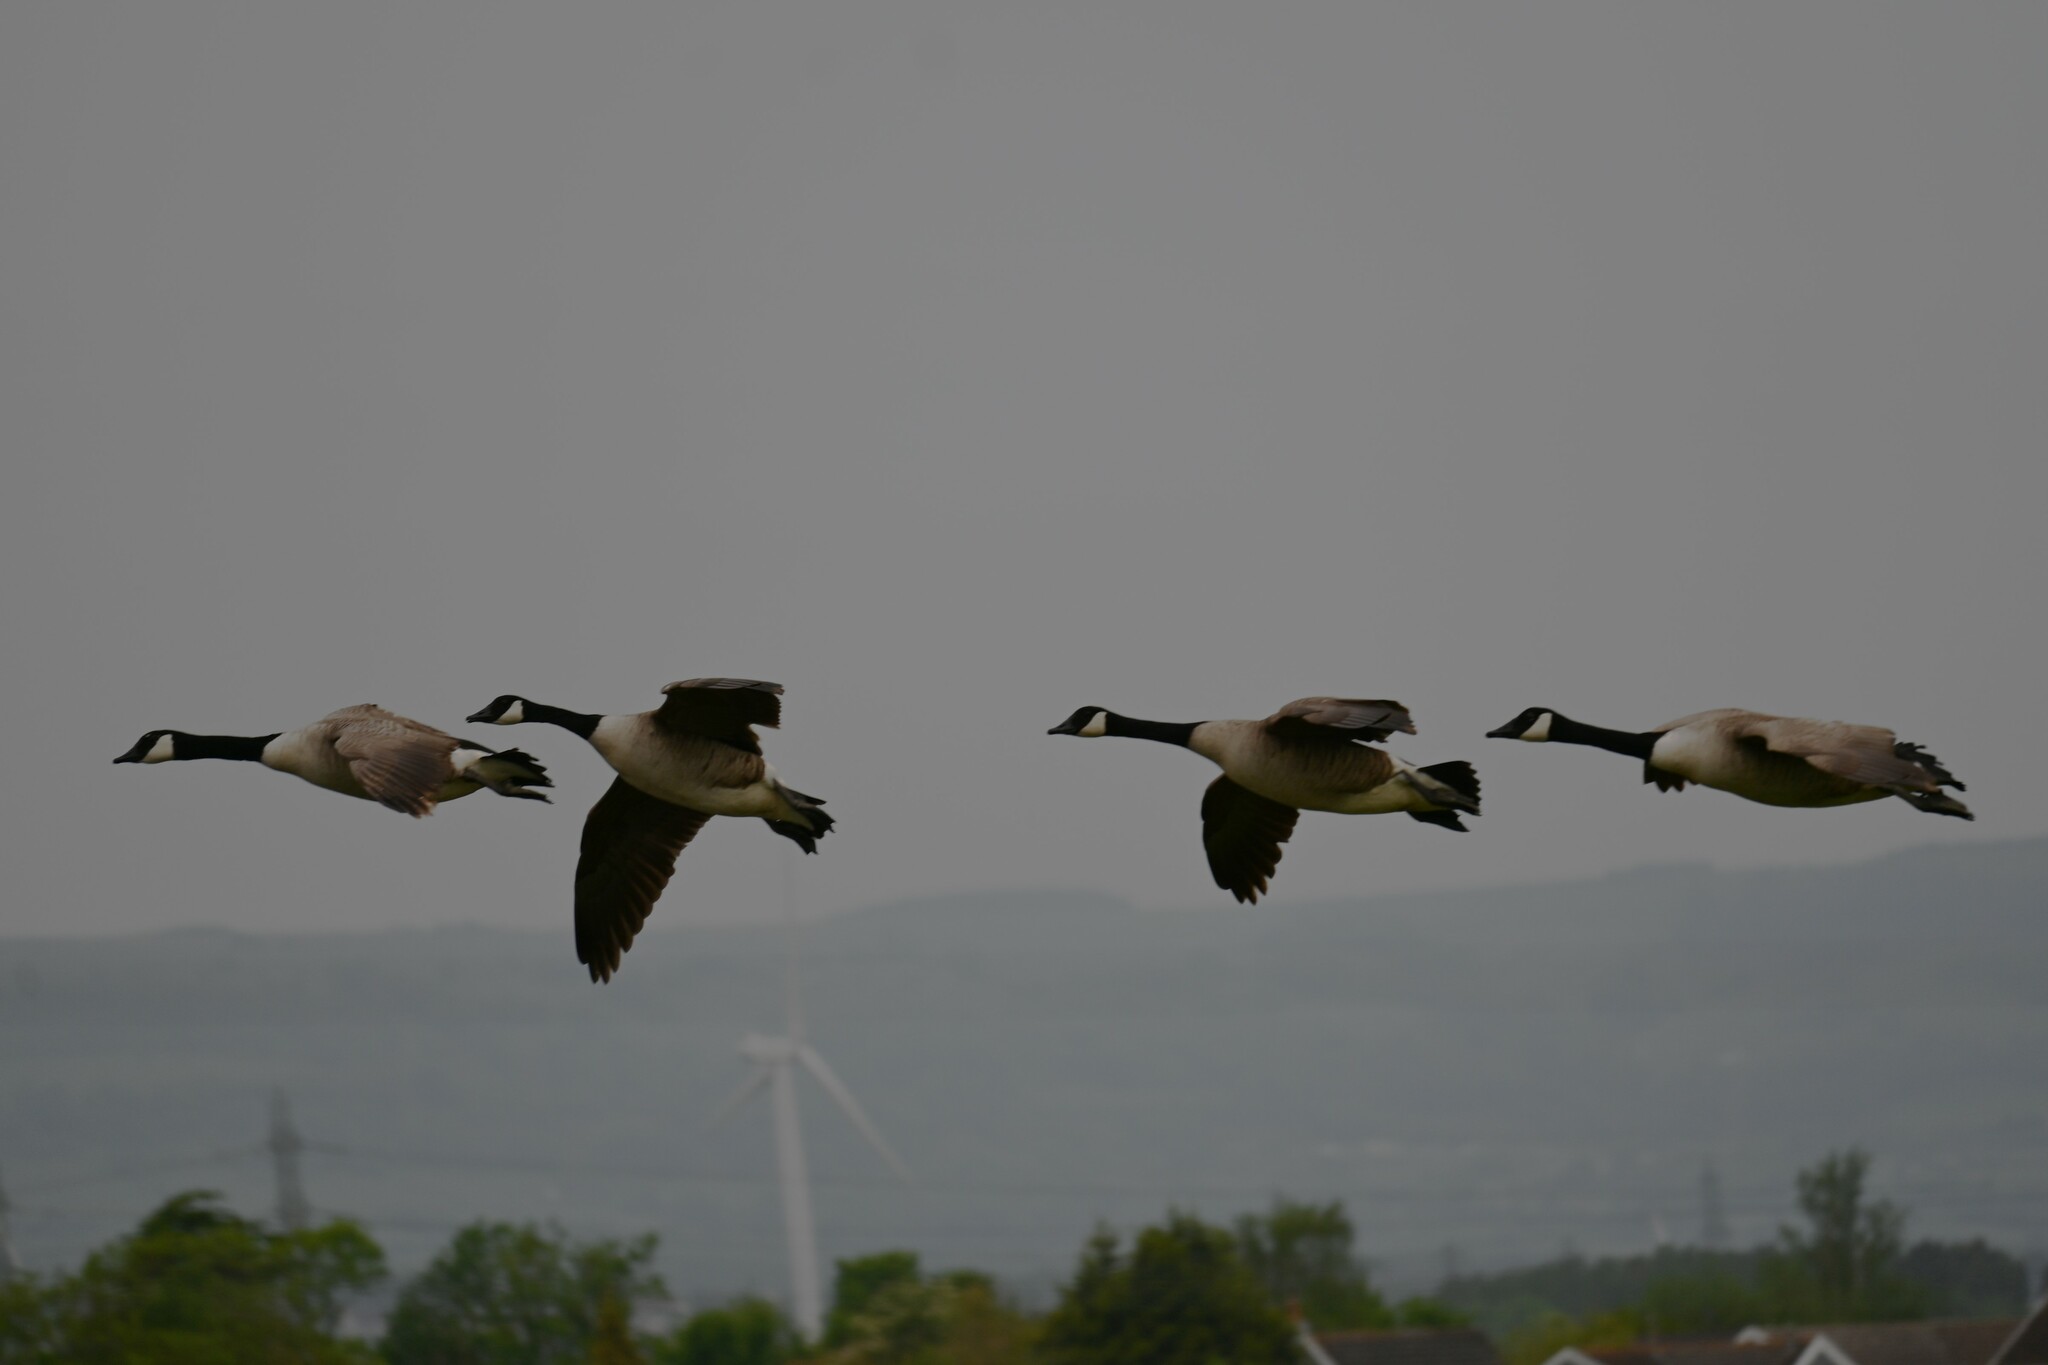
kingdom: Animalia
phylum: Chordata
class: Aves
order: Anseriformes
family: Anatidae
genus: Branta
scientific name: Branta canadensis
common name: Canada goose
